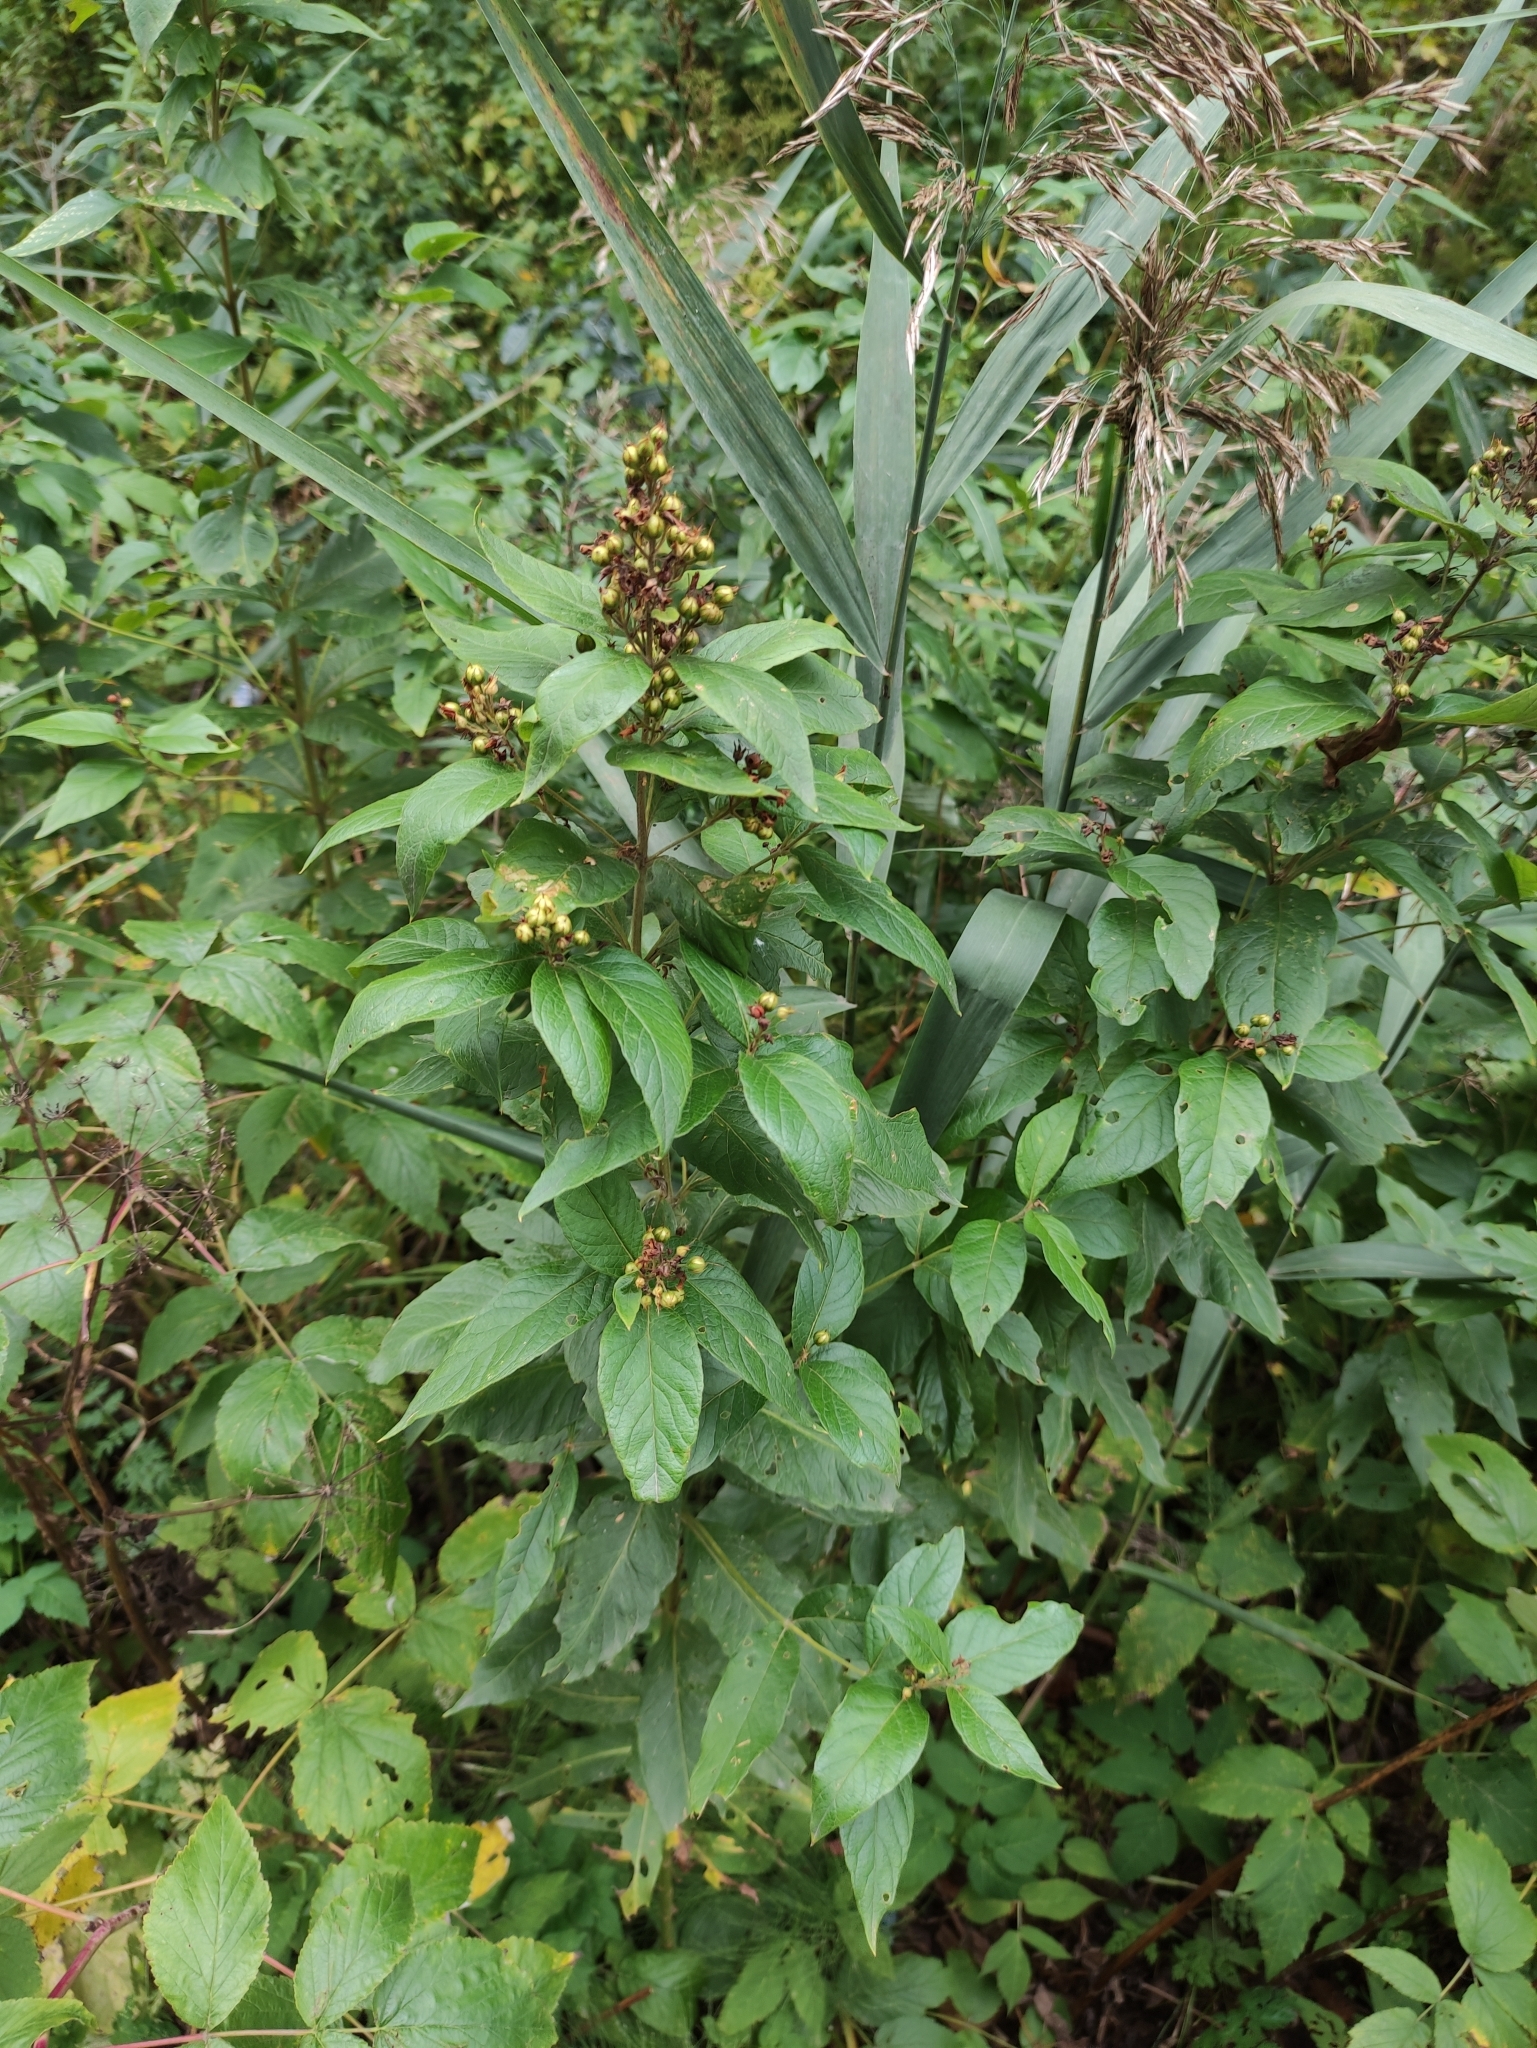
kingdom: Plantae
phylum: Tracheophyta
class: Magnoliopsida
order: Ericales
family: Primulaceae
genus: Lysimachia
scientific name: Lysimachia vulgaris
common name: Yellow loosestrife
